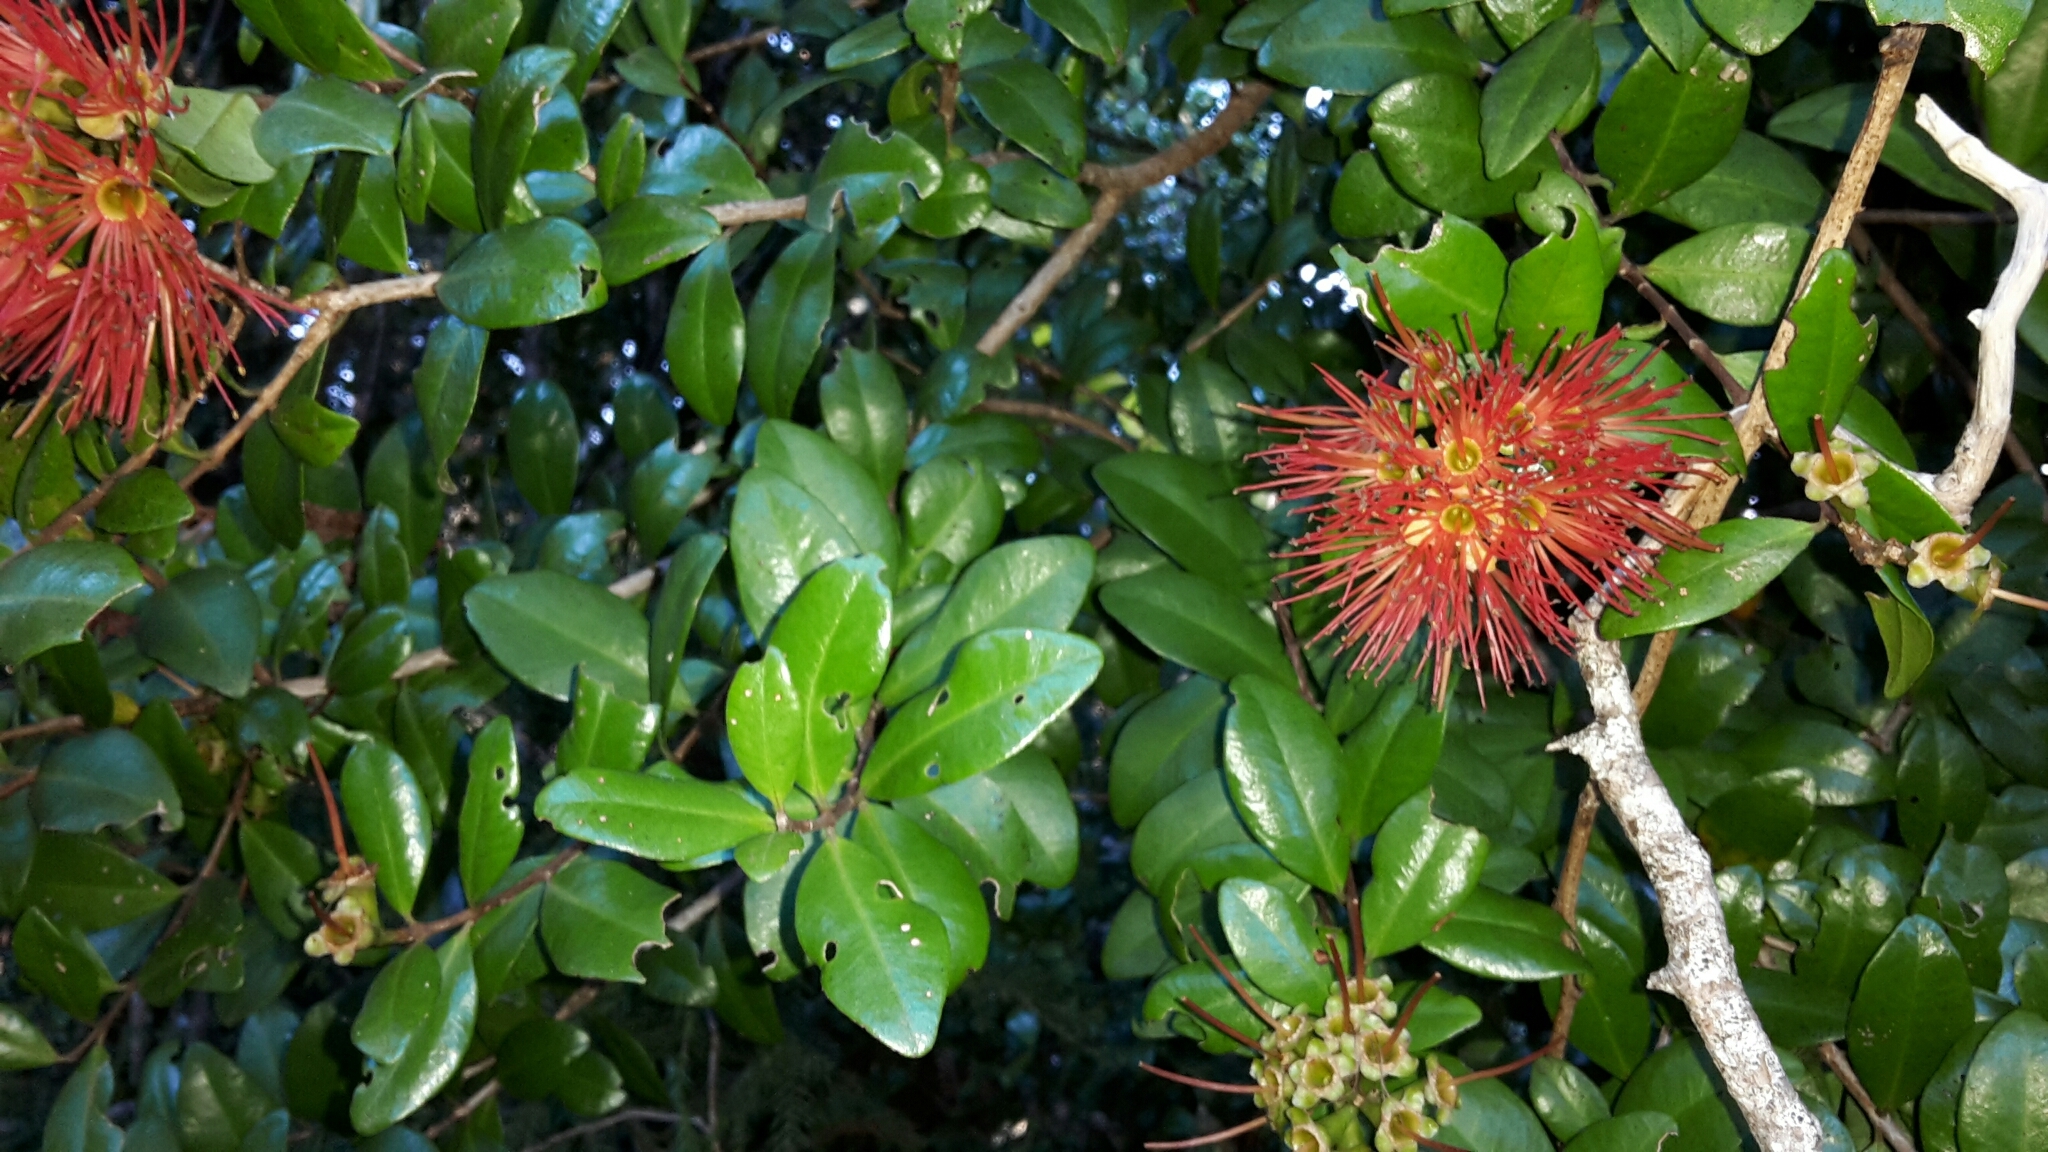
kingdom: Plantae
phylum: Tracheophyta
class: Magnoliopsida
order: Myrtales
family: Myrtaceae
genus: Metrosideros
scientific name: Metrosideros fulgens
